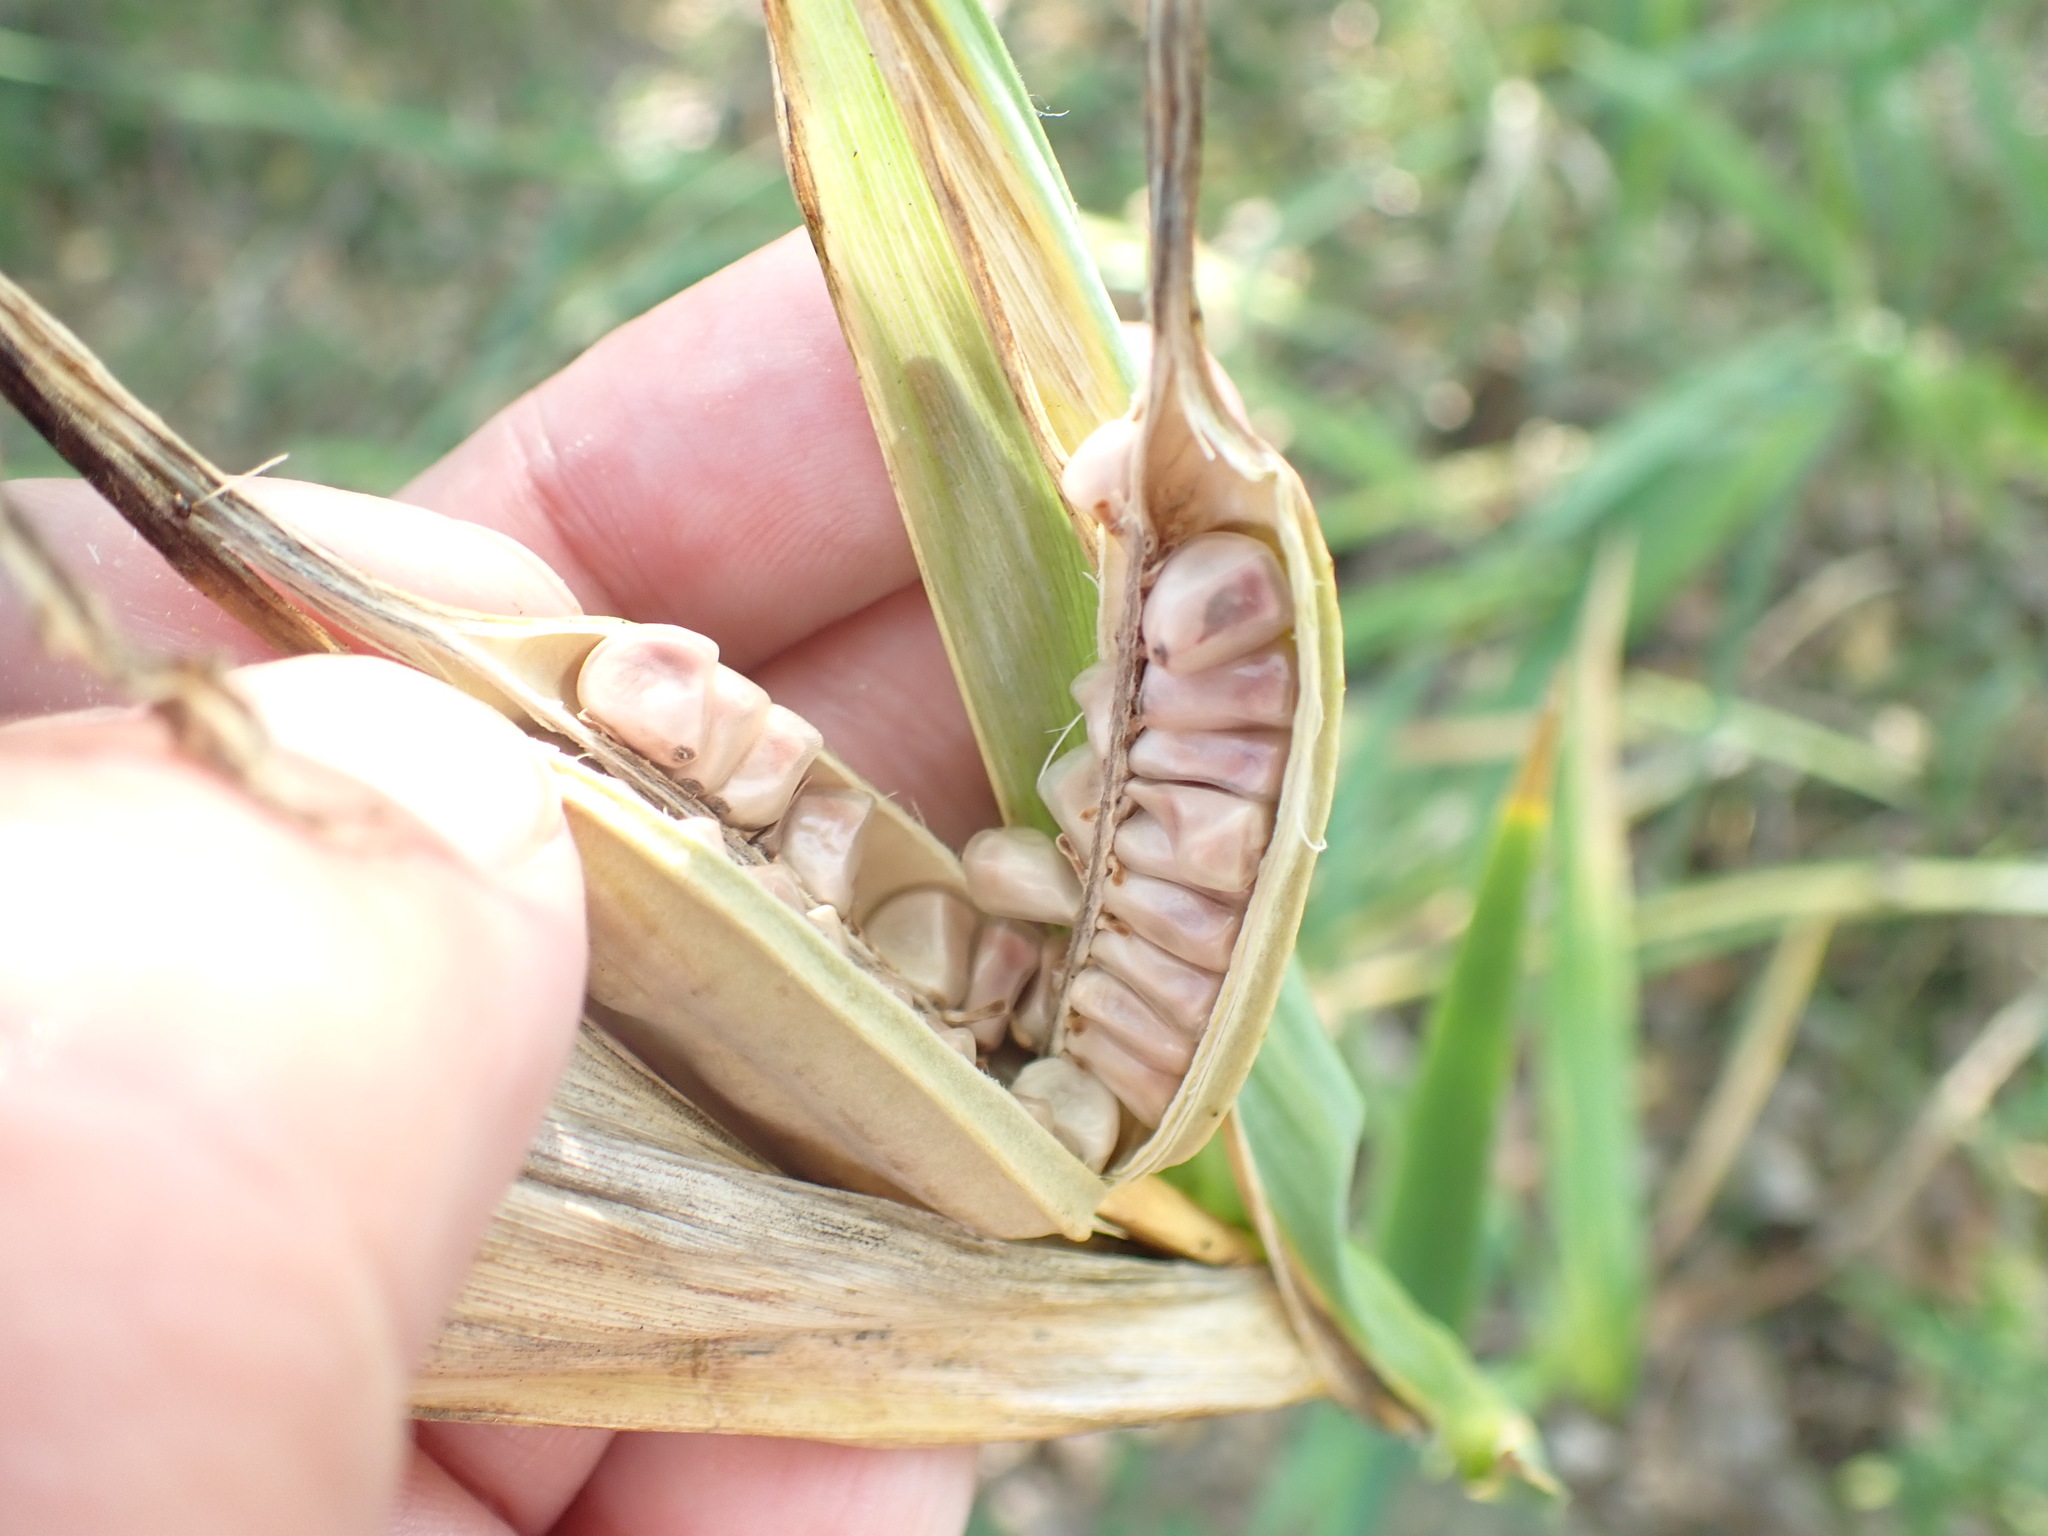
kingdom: Plantae
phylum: Tracheophyta
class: Liliopsida
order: Asparagales
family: Iridaceae
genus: Iris
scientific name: Iris pseudacorus
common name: Yellow flag
